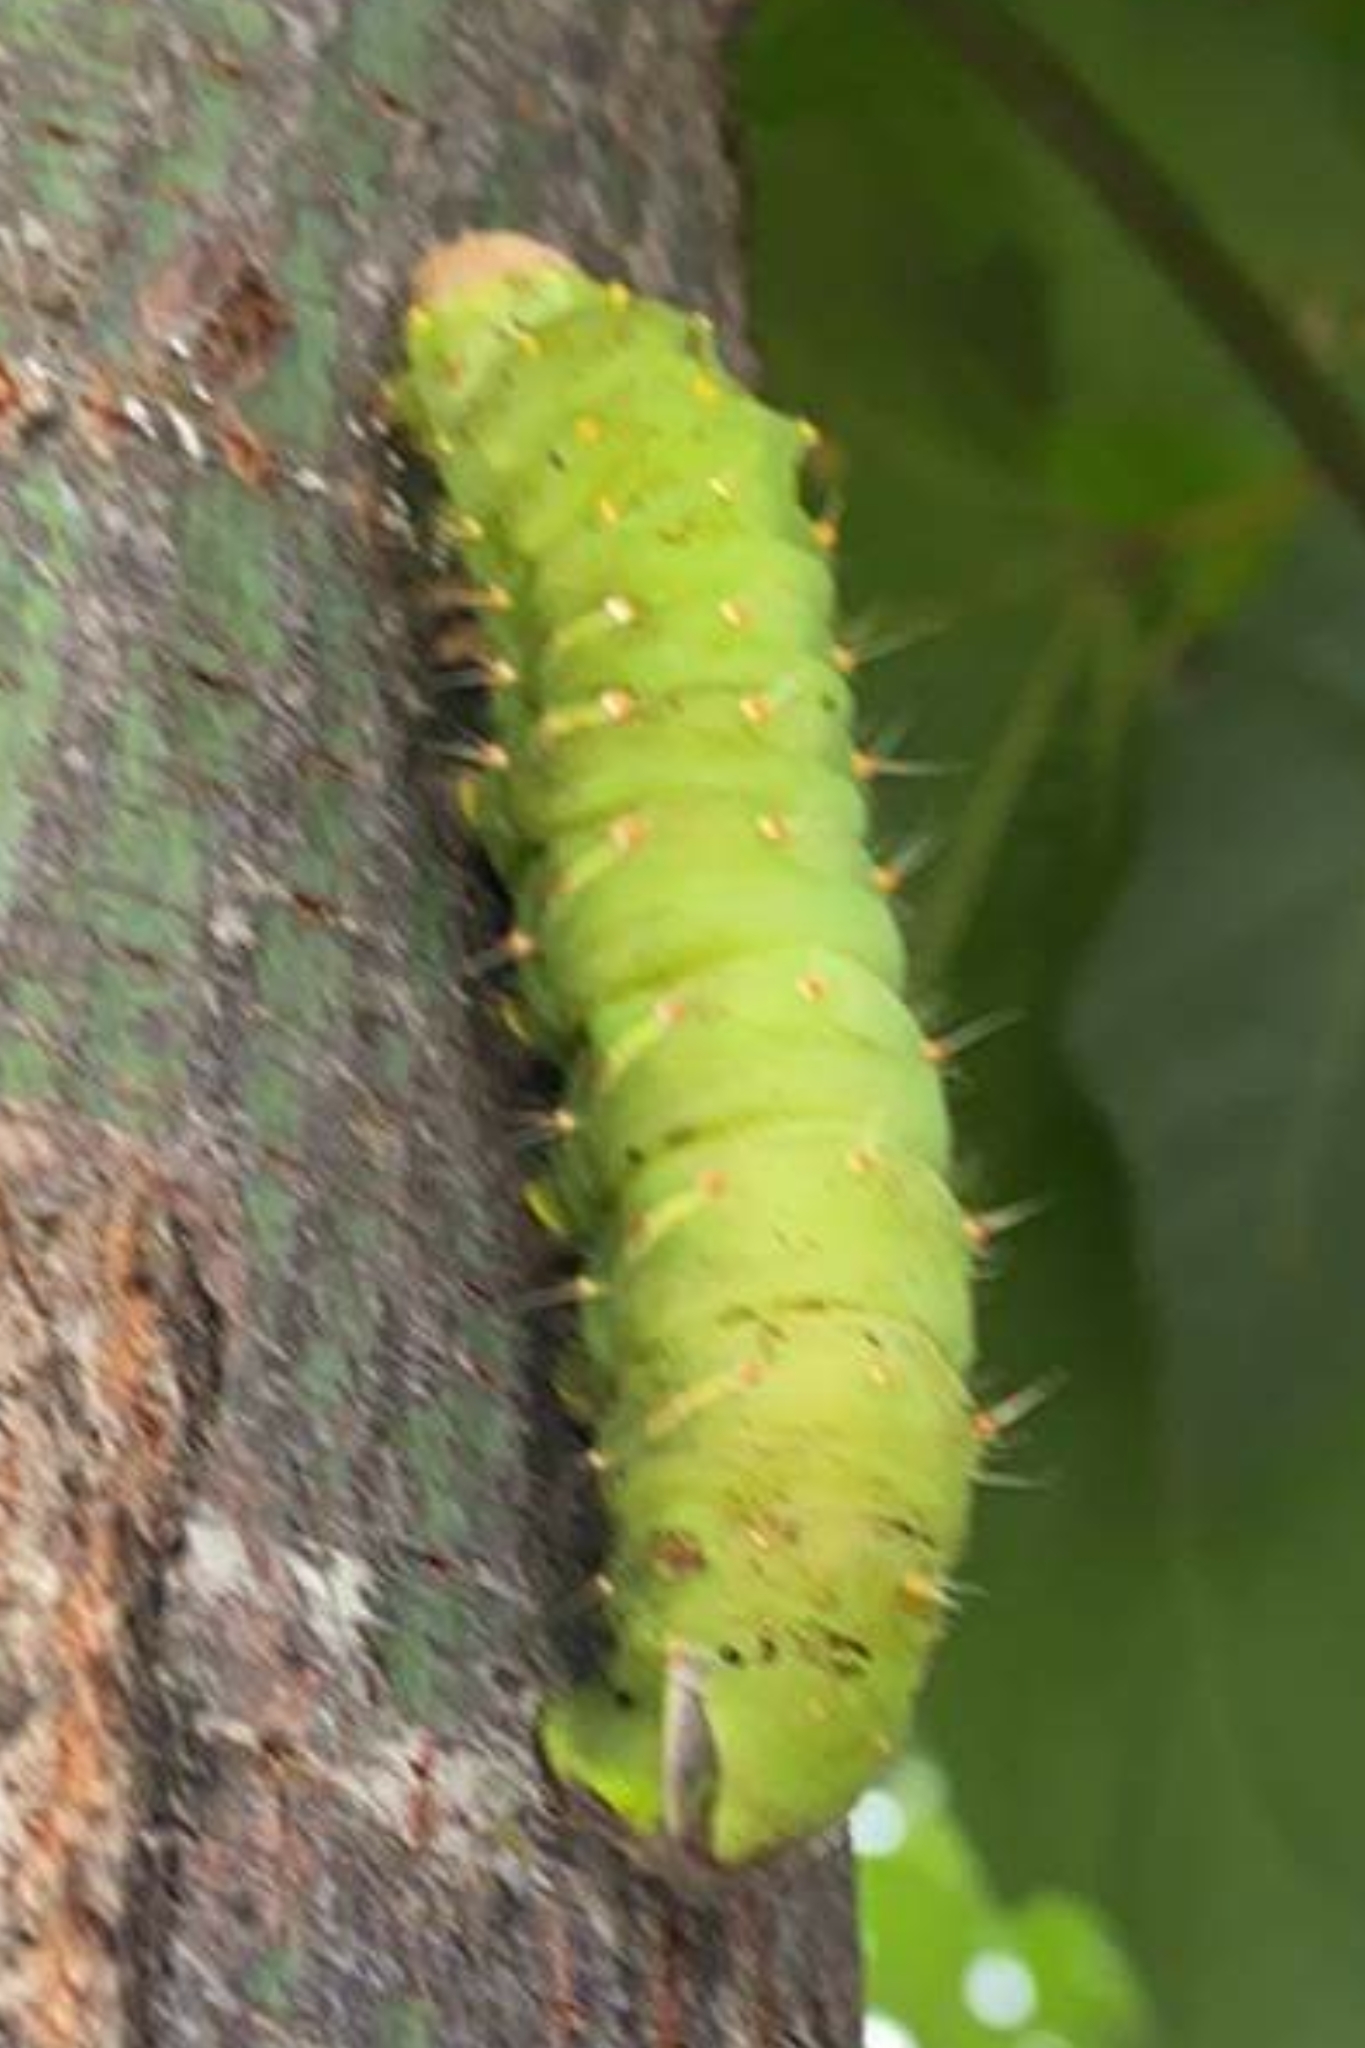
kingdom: Animalia
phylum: Arthropoda
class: Insecta
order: Lepidoptera
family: Saturniidae
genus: Antheraea
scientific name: Antheraea polyphemus
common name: Polyphemus moth
